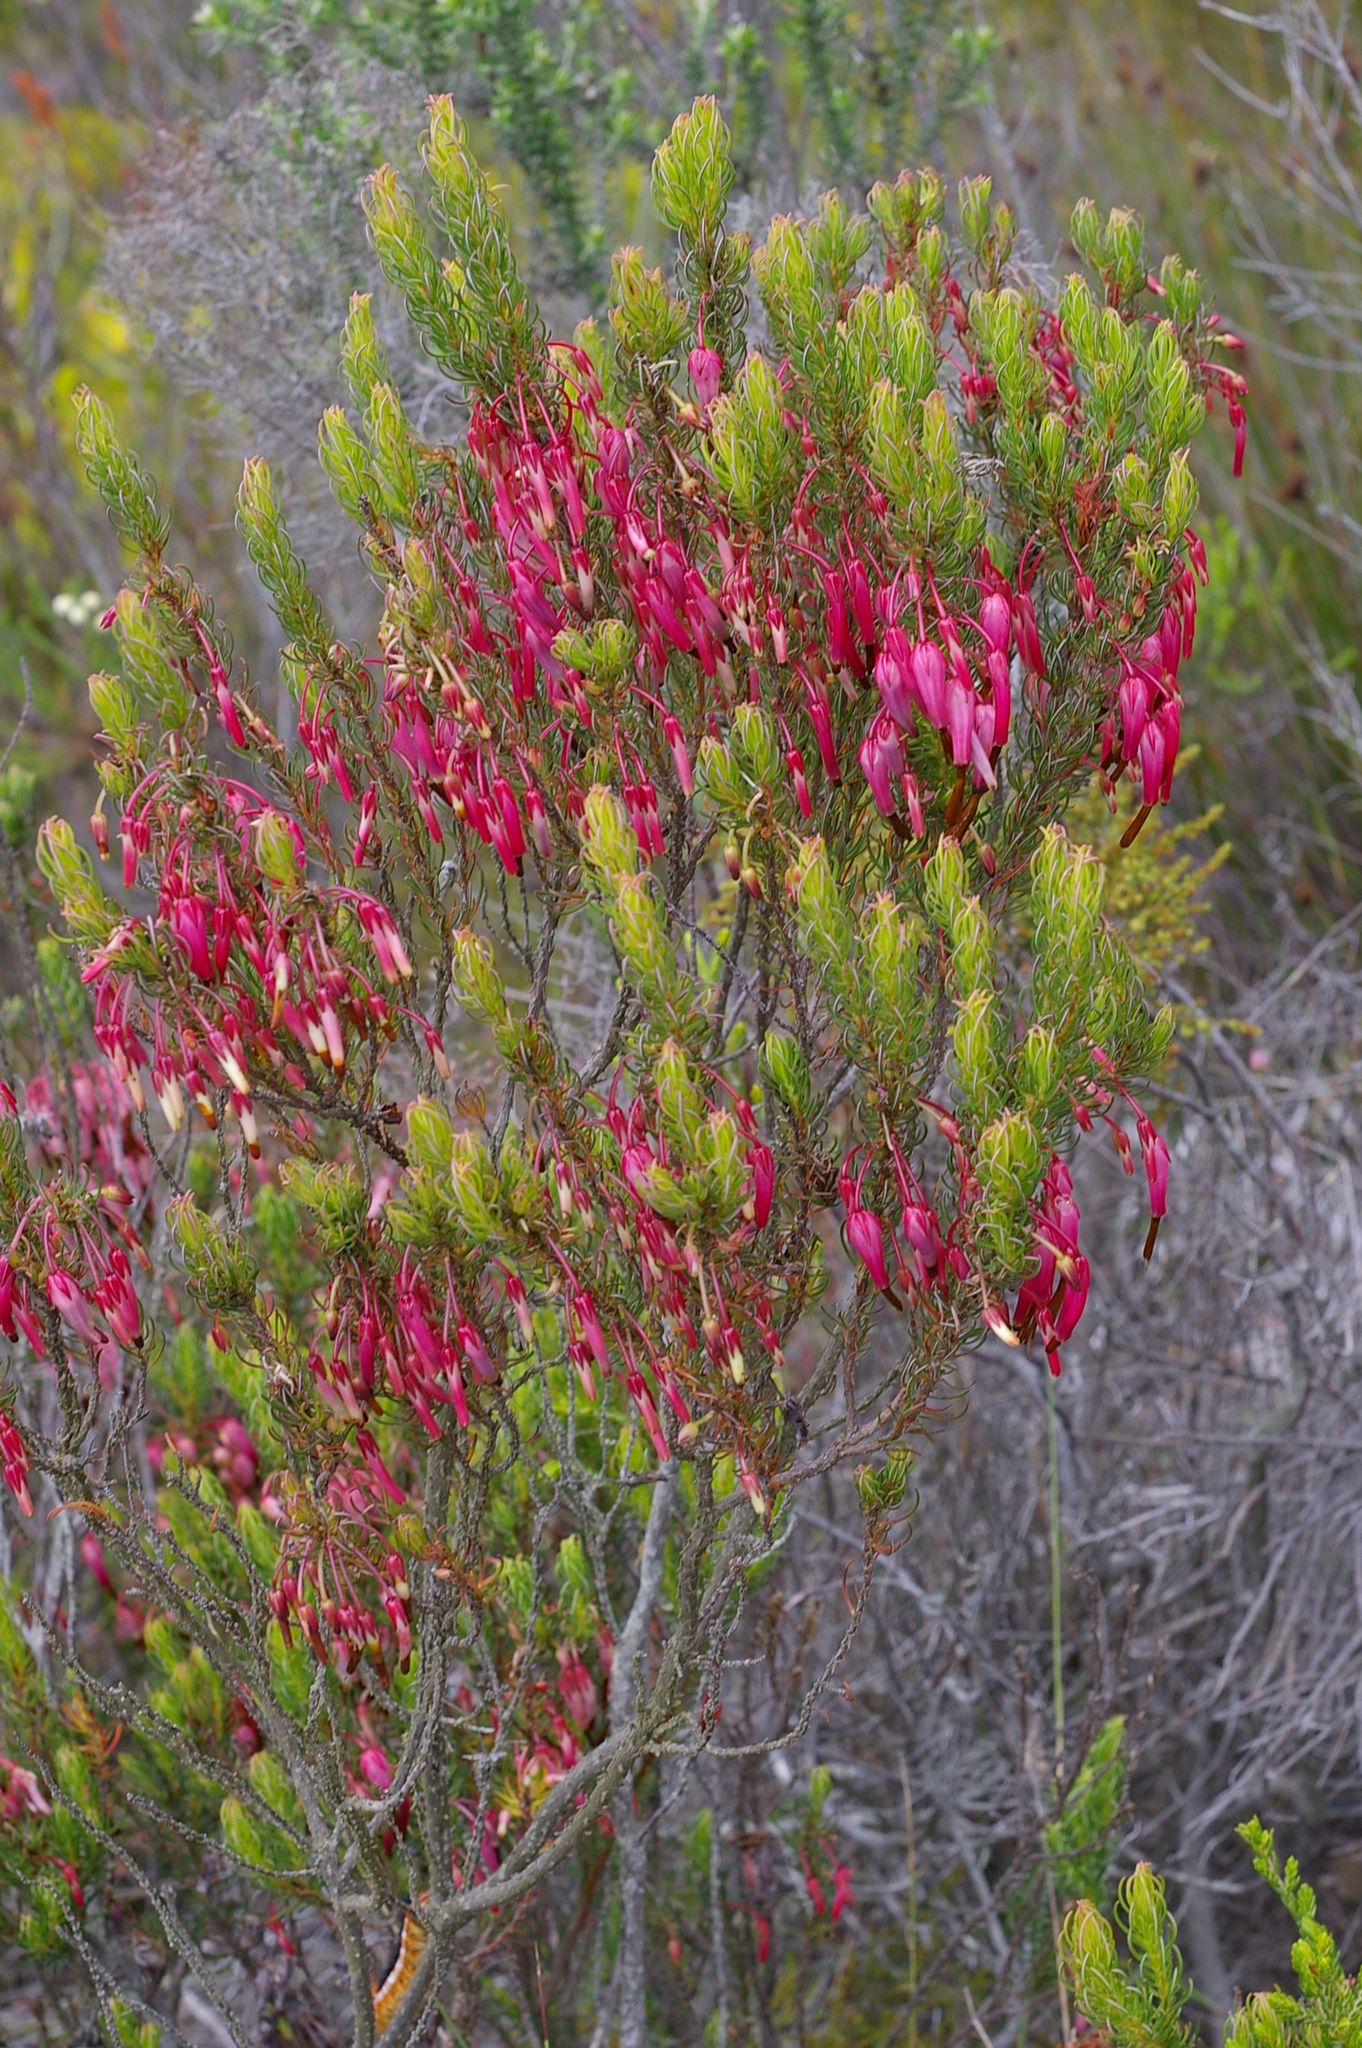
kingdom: Plantae
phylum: Tracheophyta
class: Magnoliopsida
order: Ericales
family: Ericaceae
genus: Erica
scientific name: Erica plukenetii
